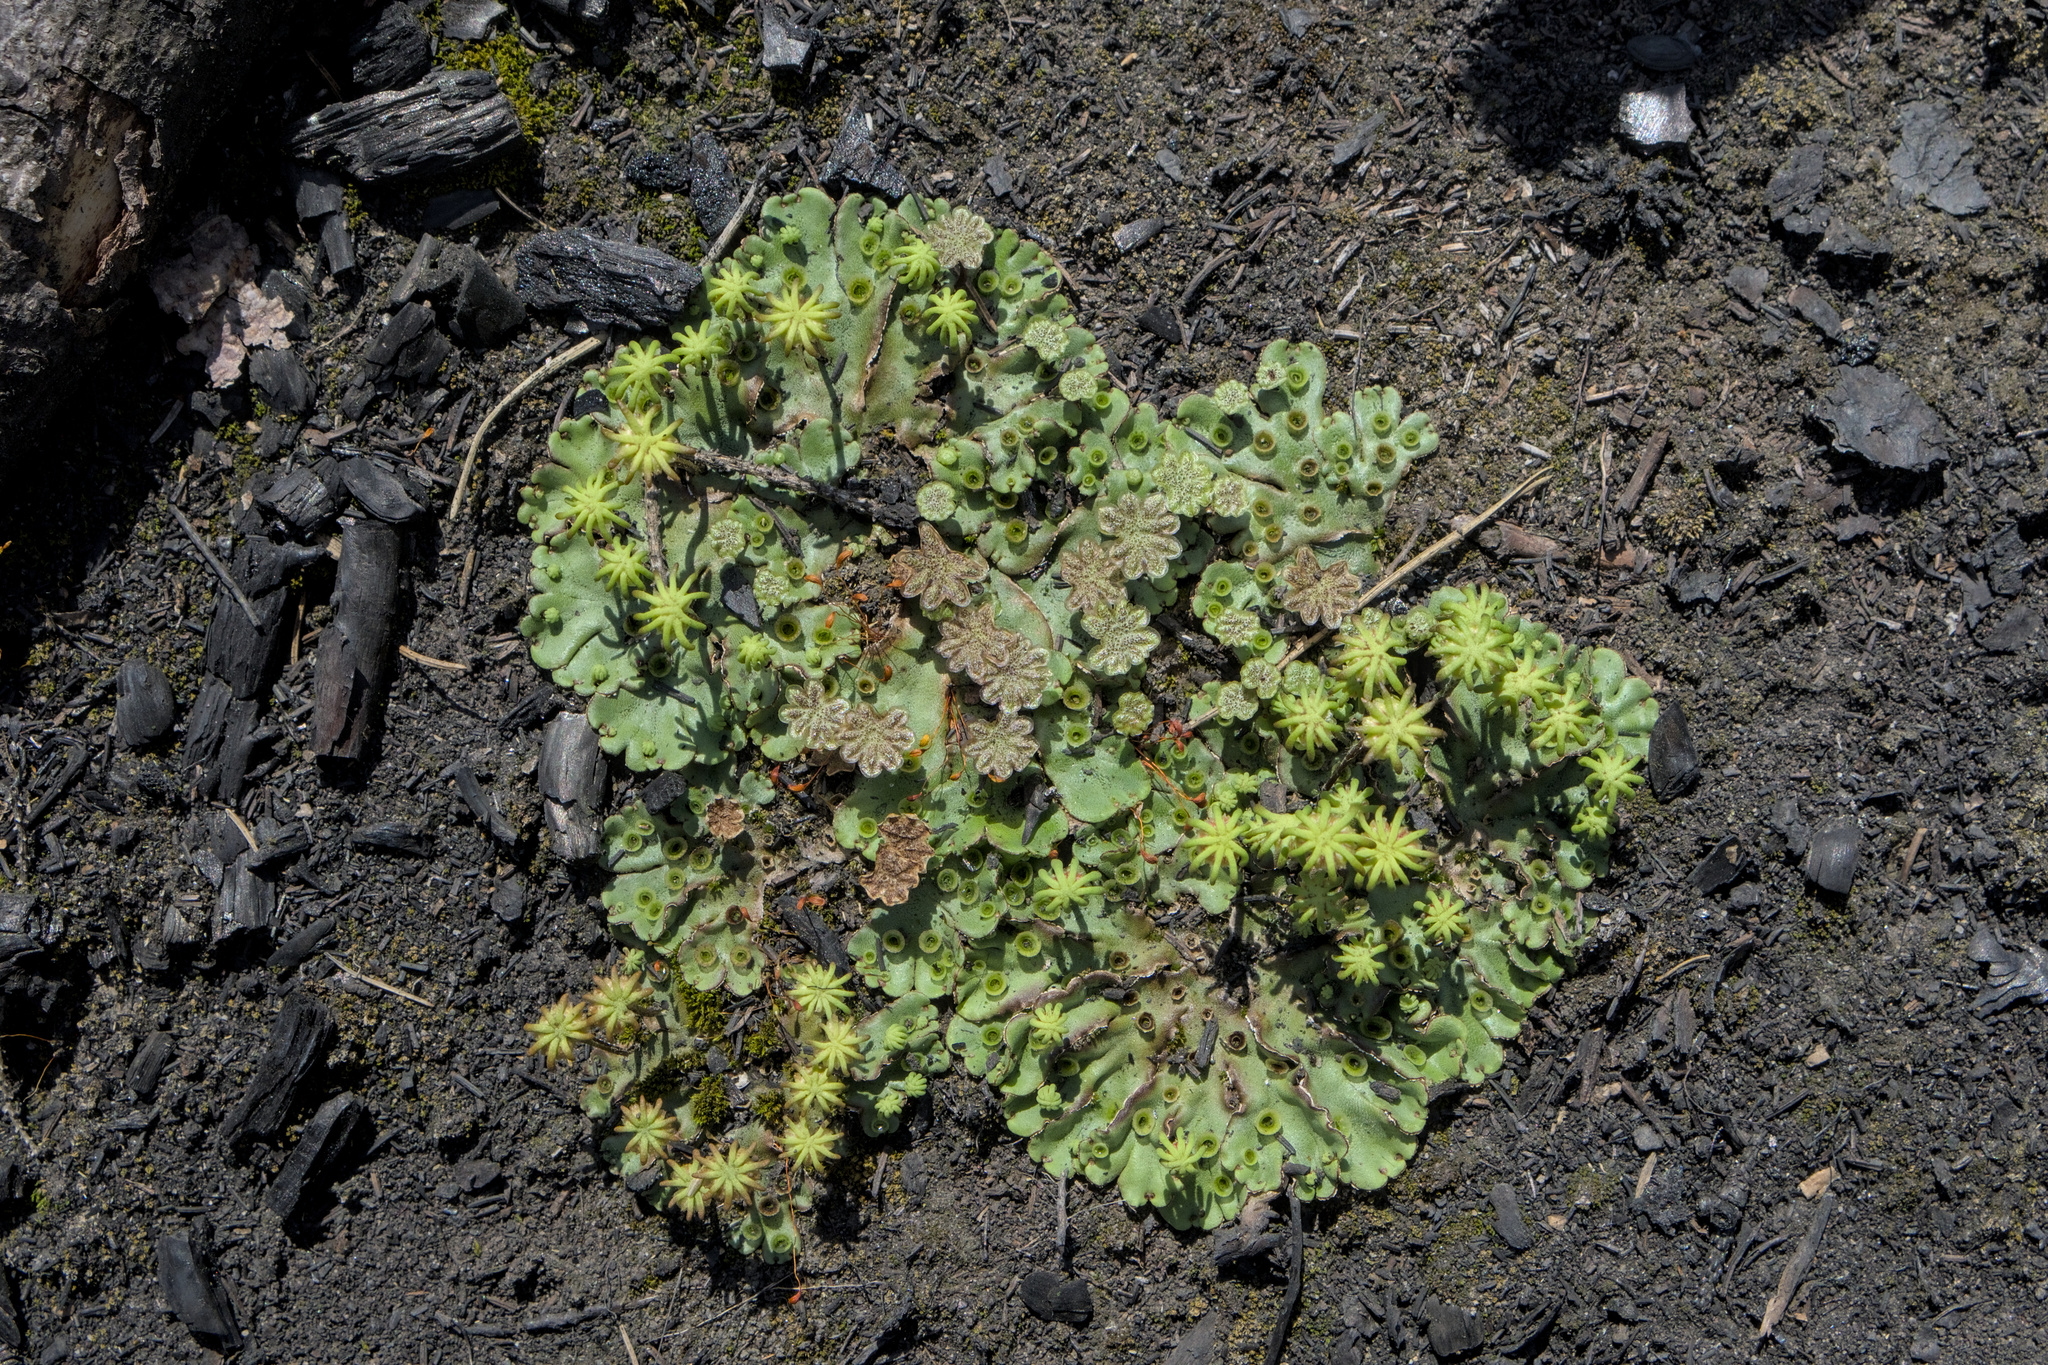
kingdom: Plantae
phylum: Marchantiophyta
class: Marchantiopsida
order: Marchantiales
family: Marchantiaceae
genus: Marchantia
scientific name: Marchantia polymorpha
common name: Common liverwort
